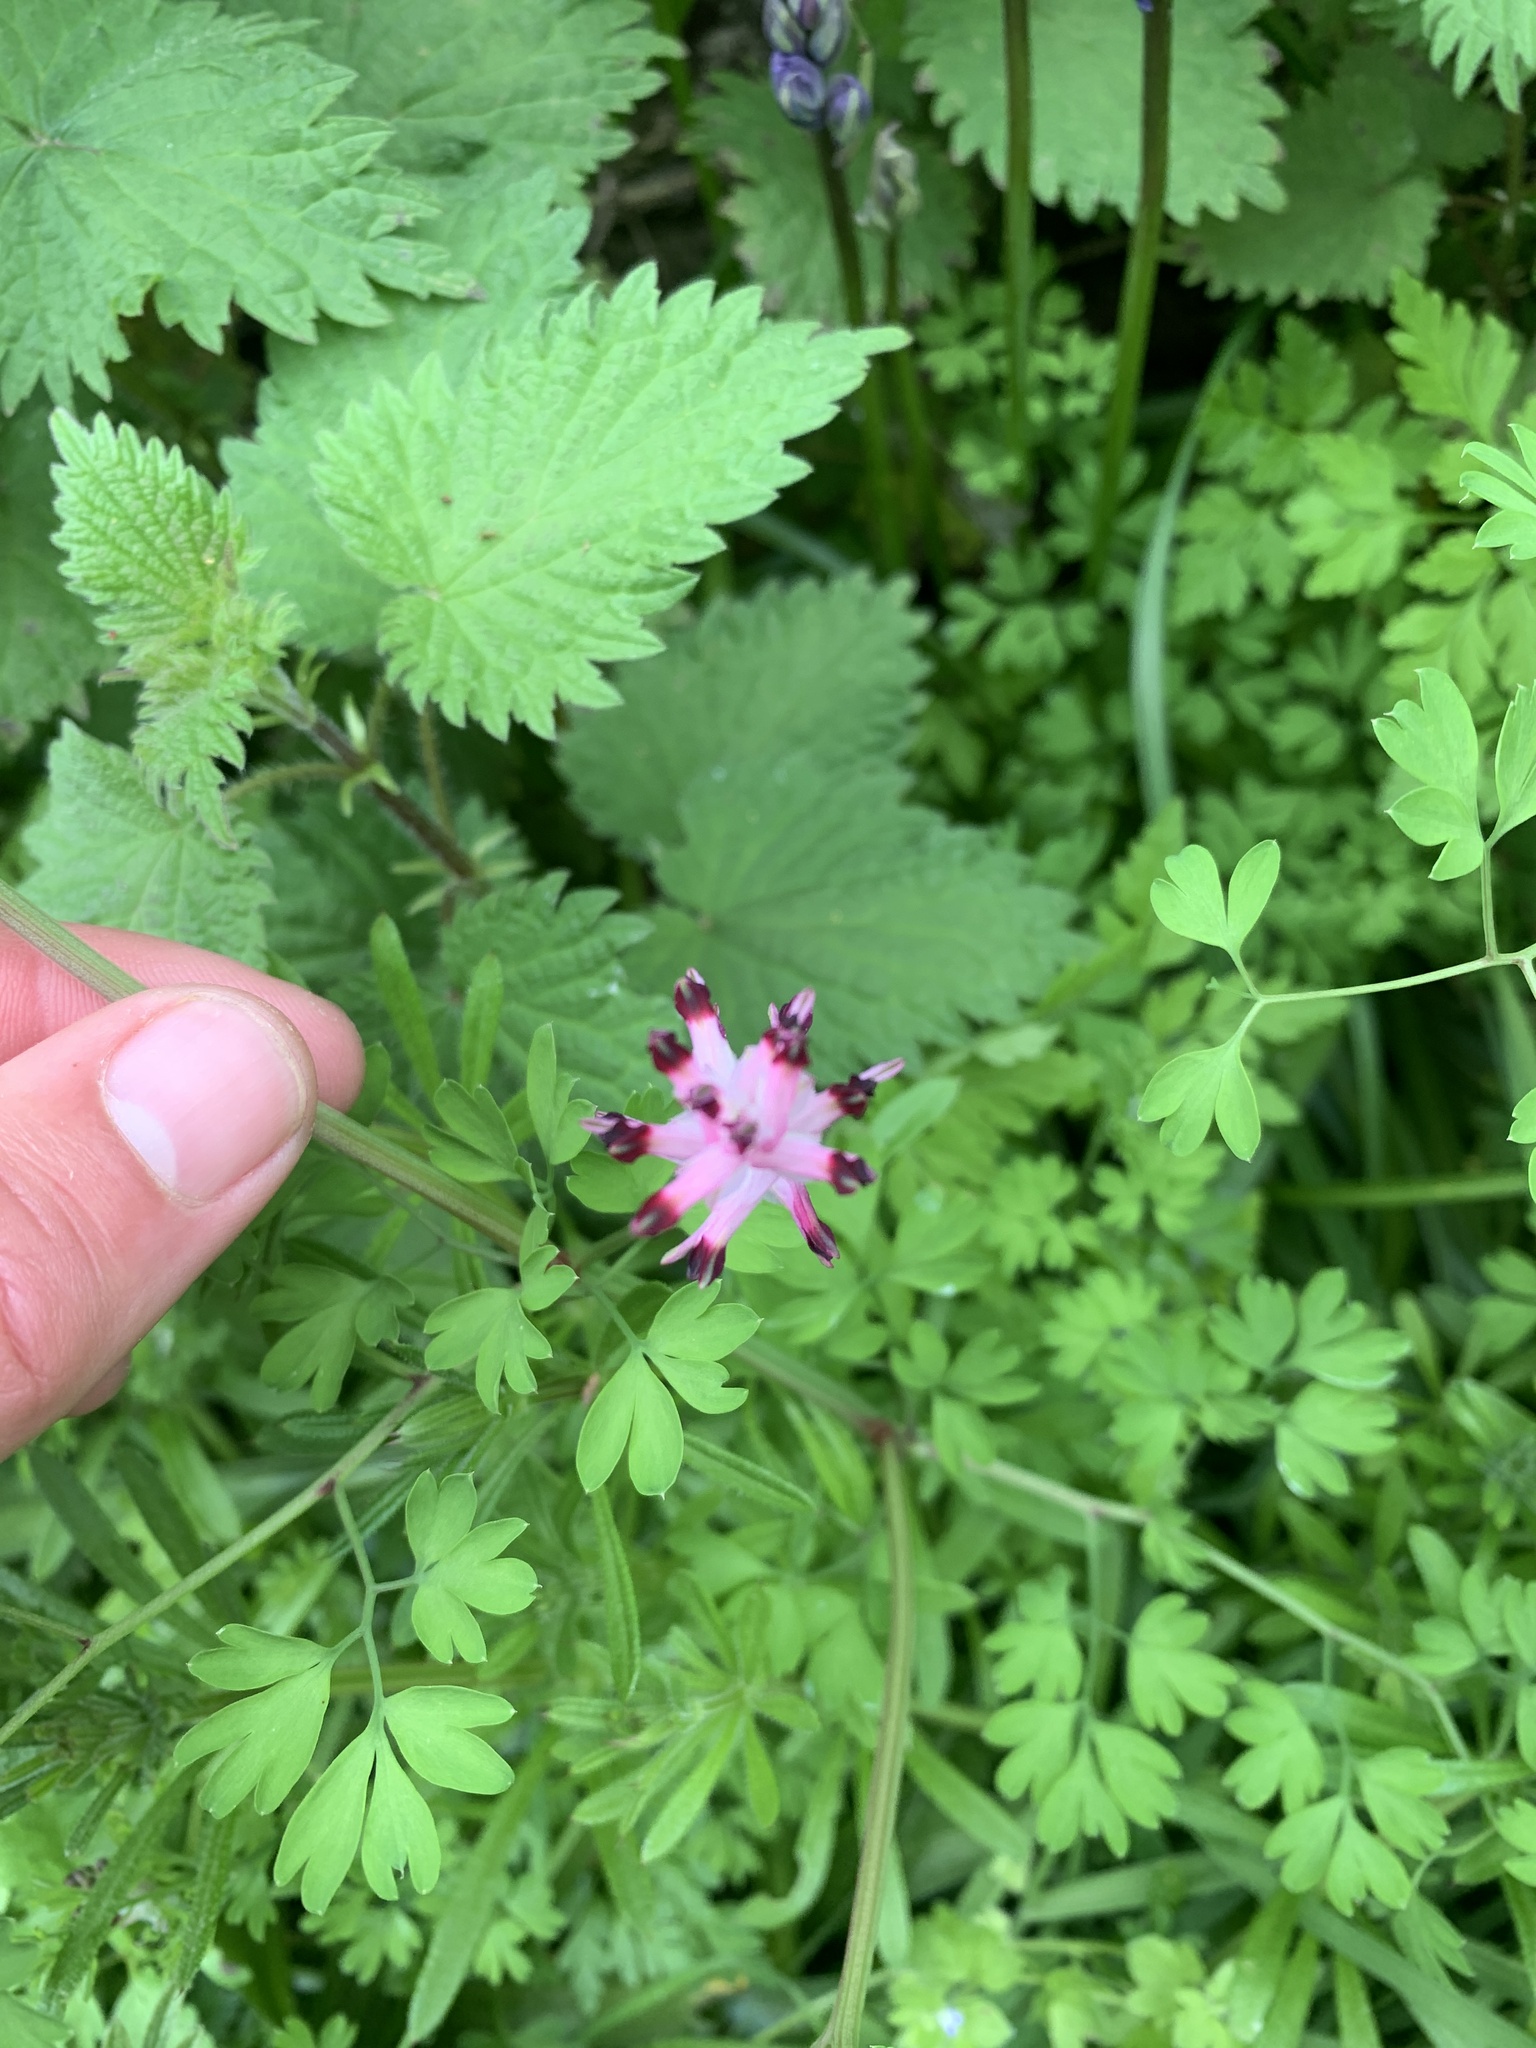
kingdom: Plantae
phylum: Tracheophyta
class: Magnoliopsida
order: Ranunculales
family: Papaveraceae
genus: Fumaria
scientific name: Fumaria muralis
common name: Common ramping-fumitory
